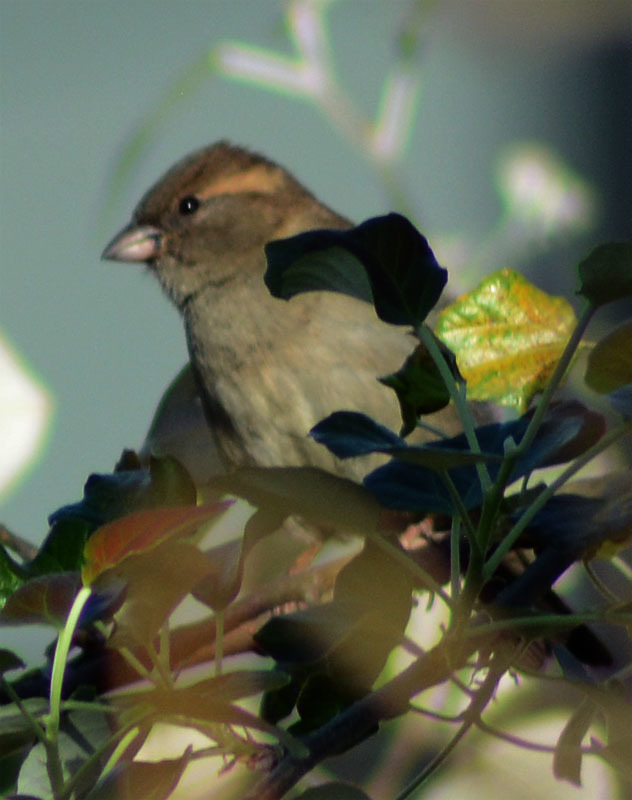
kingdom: Animalia
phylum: Chordata
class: Aves
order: Passeriformes
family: Passeridae
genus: Passer
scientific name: Passer domesticus
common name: House sparrow
